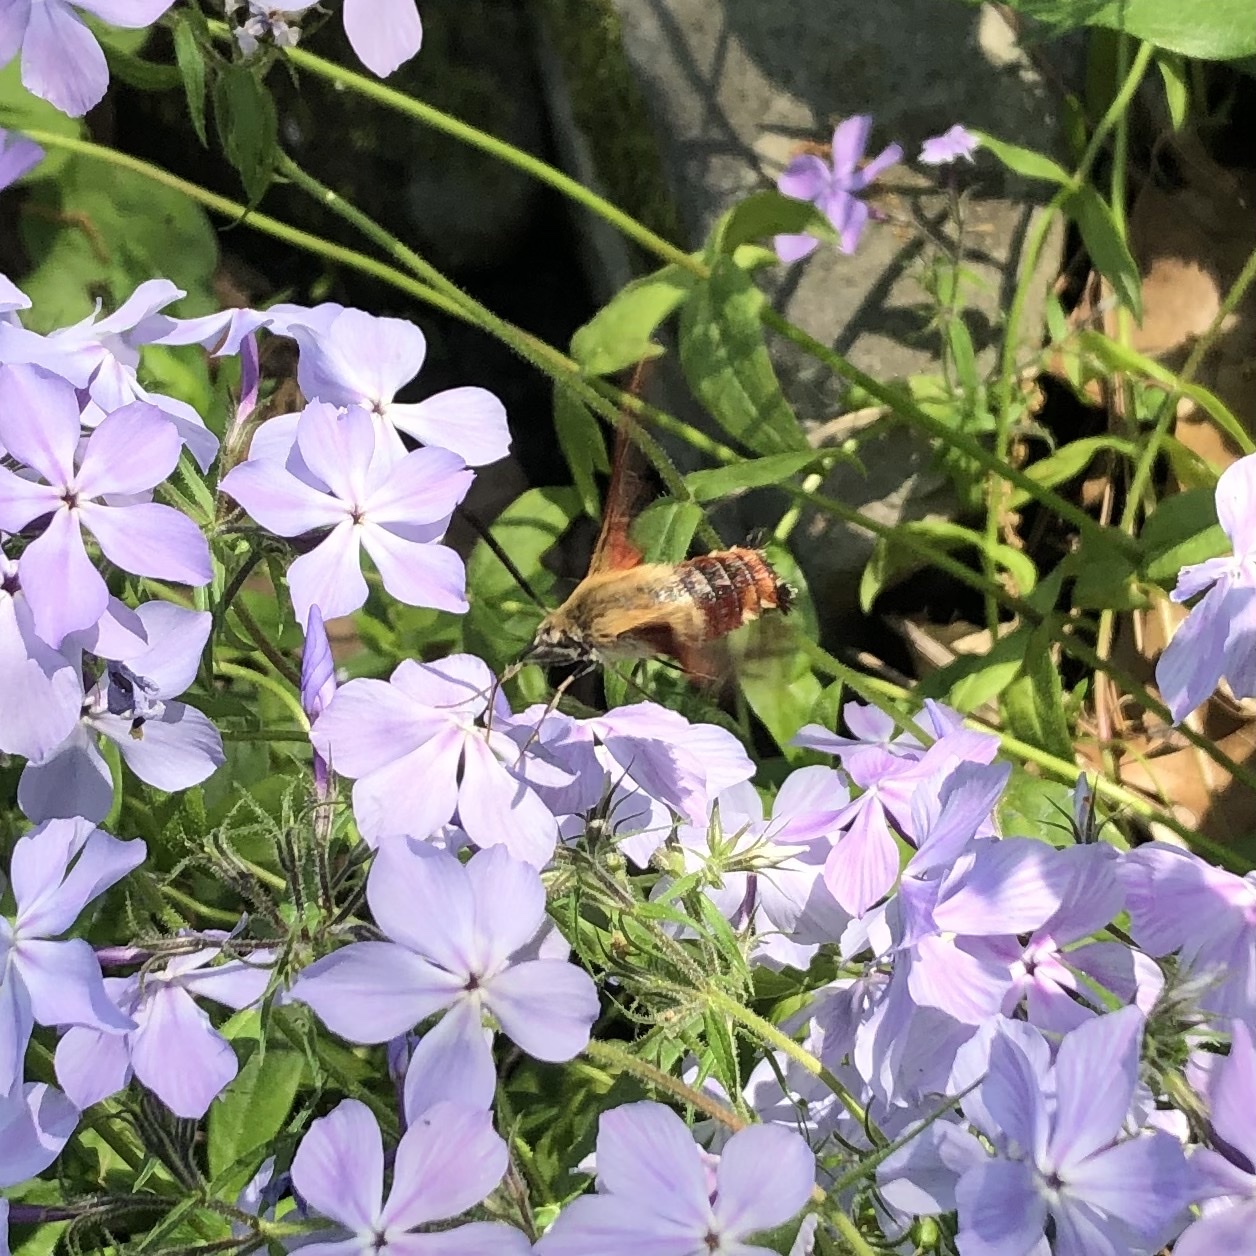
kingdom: Animalia
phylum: Arthropoda
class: Insecta
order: Lepidoptera
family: Sphingidae
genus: Hemaris
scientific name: Hemaris thysbe
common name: Common clear-wing
